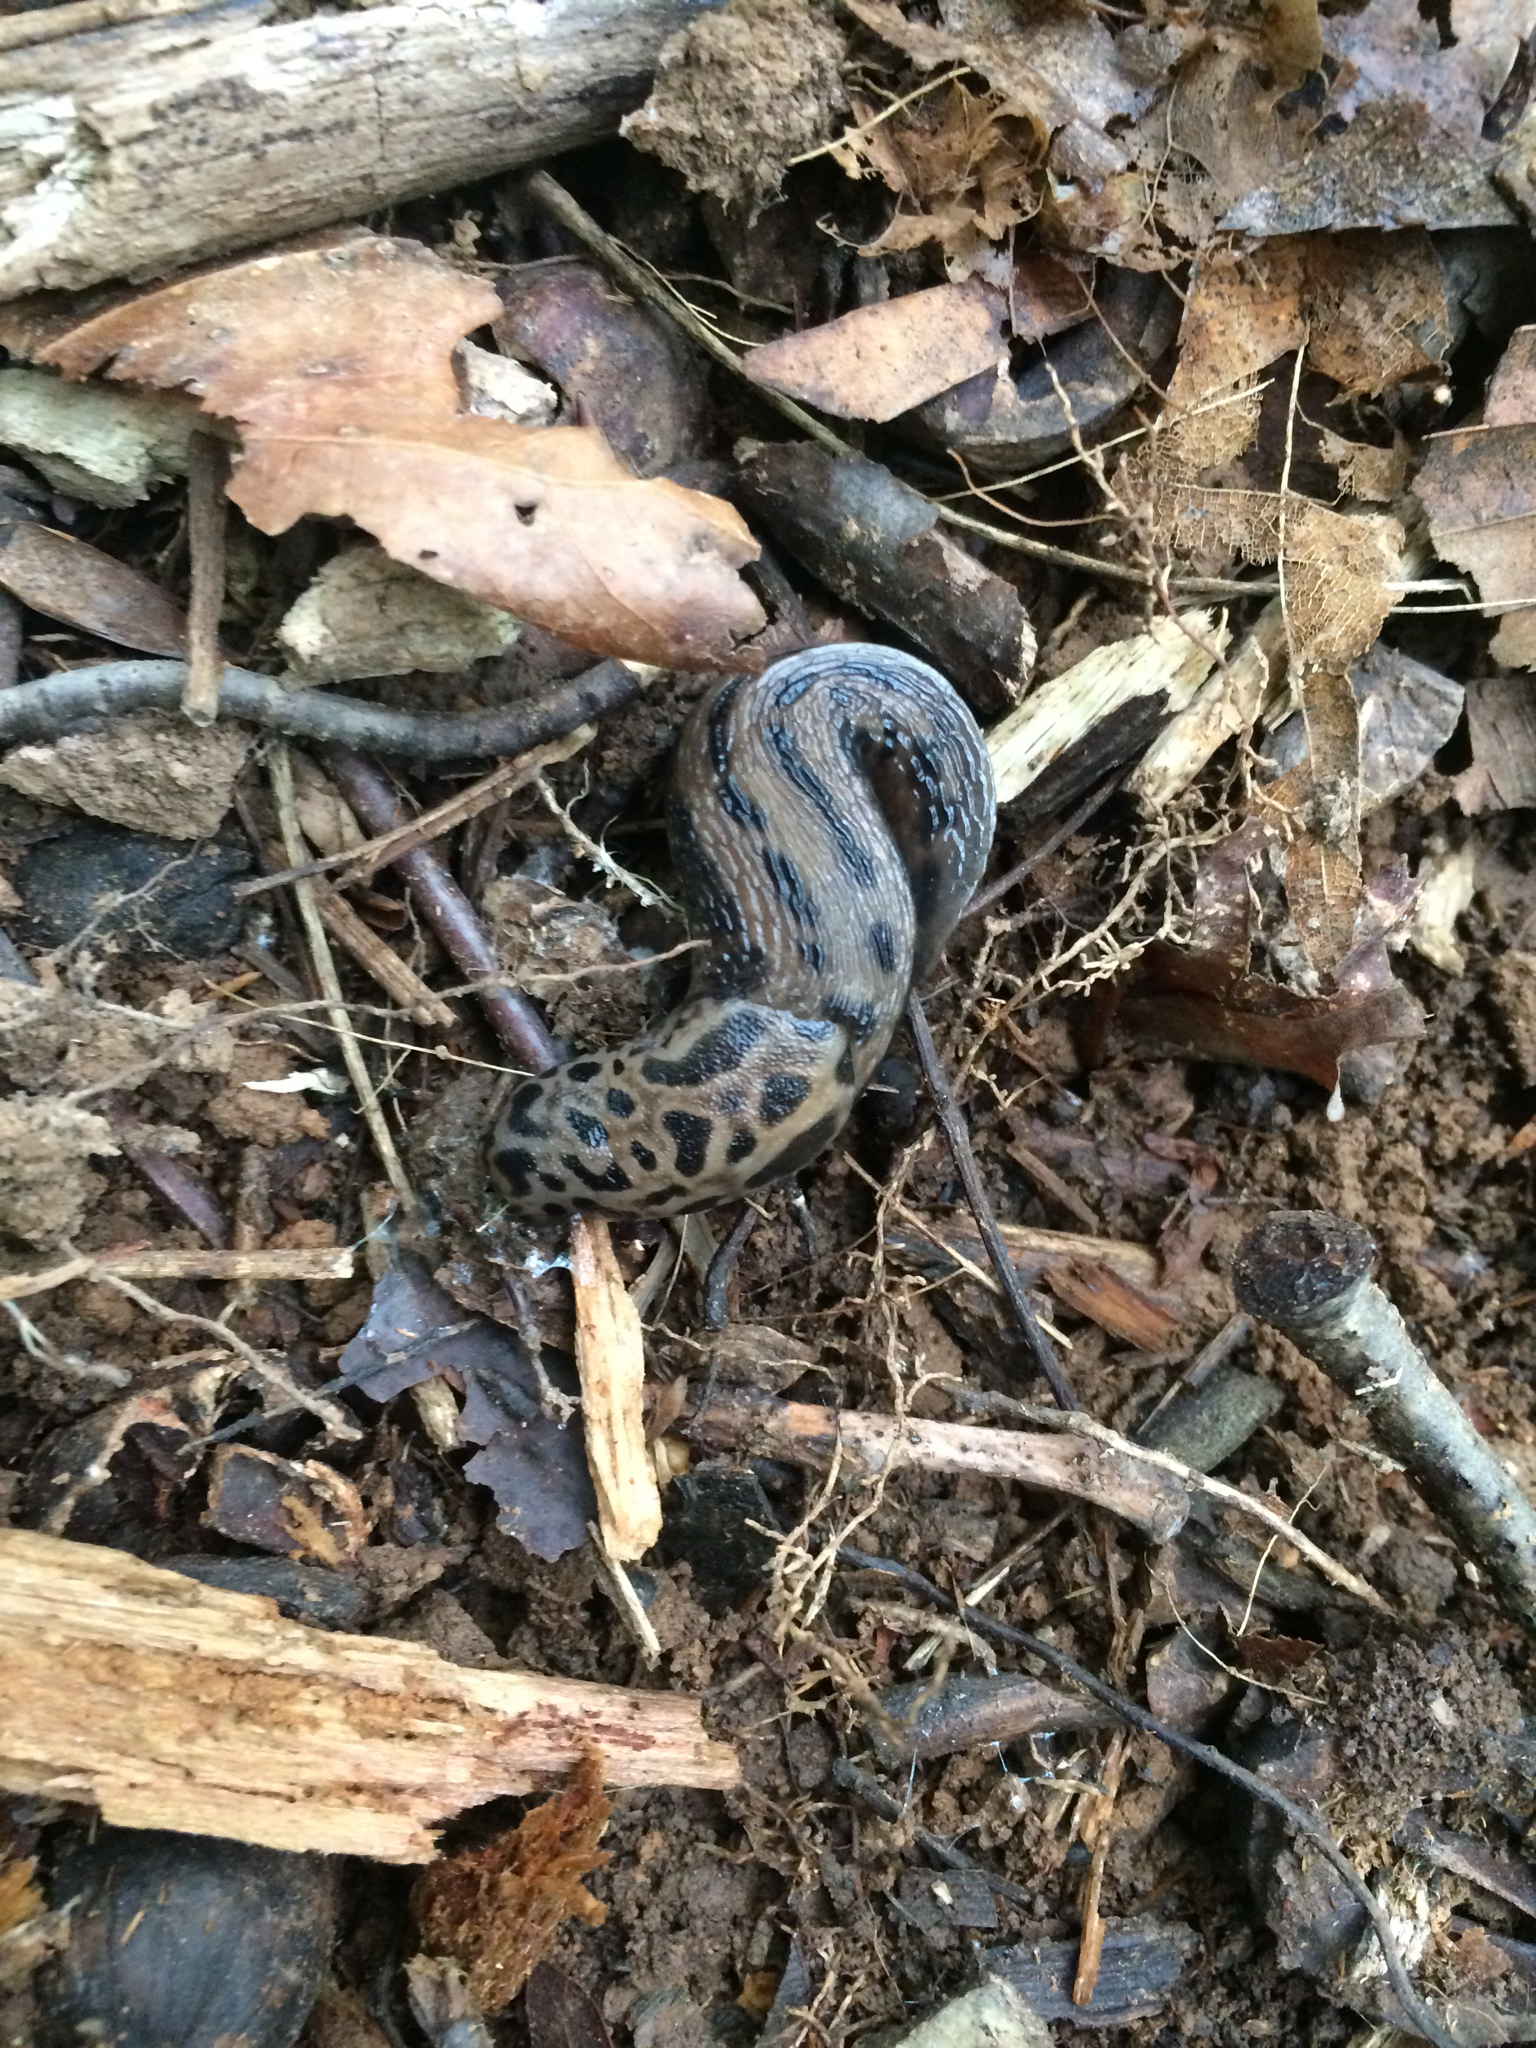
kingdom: Animalia
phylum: Mollusca
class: Gastropoda
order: Stylommatophora
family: Limacidae
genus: Limax
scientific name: Limax maximus
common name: Great grey slug
